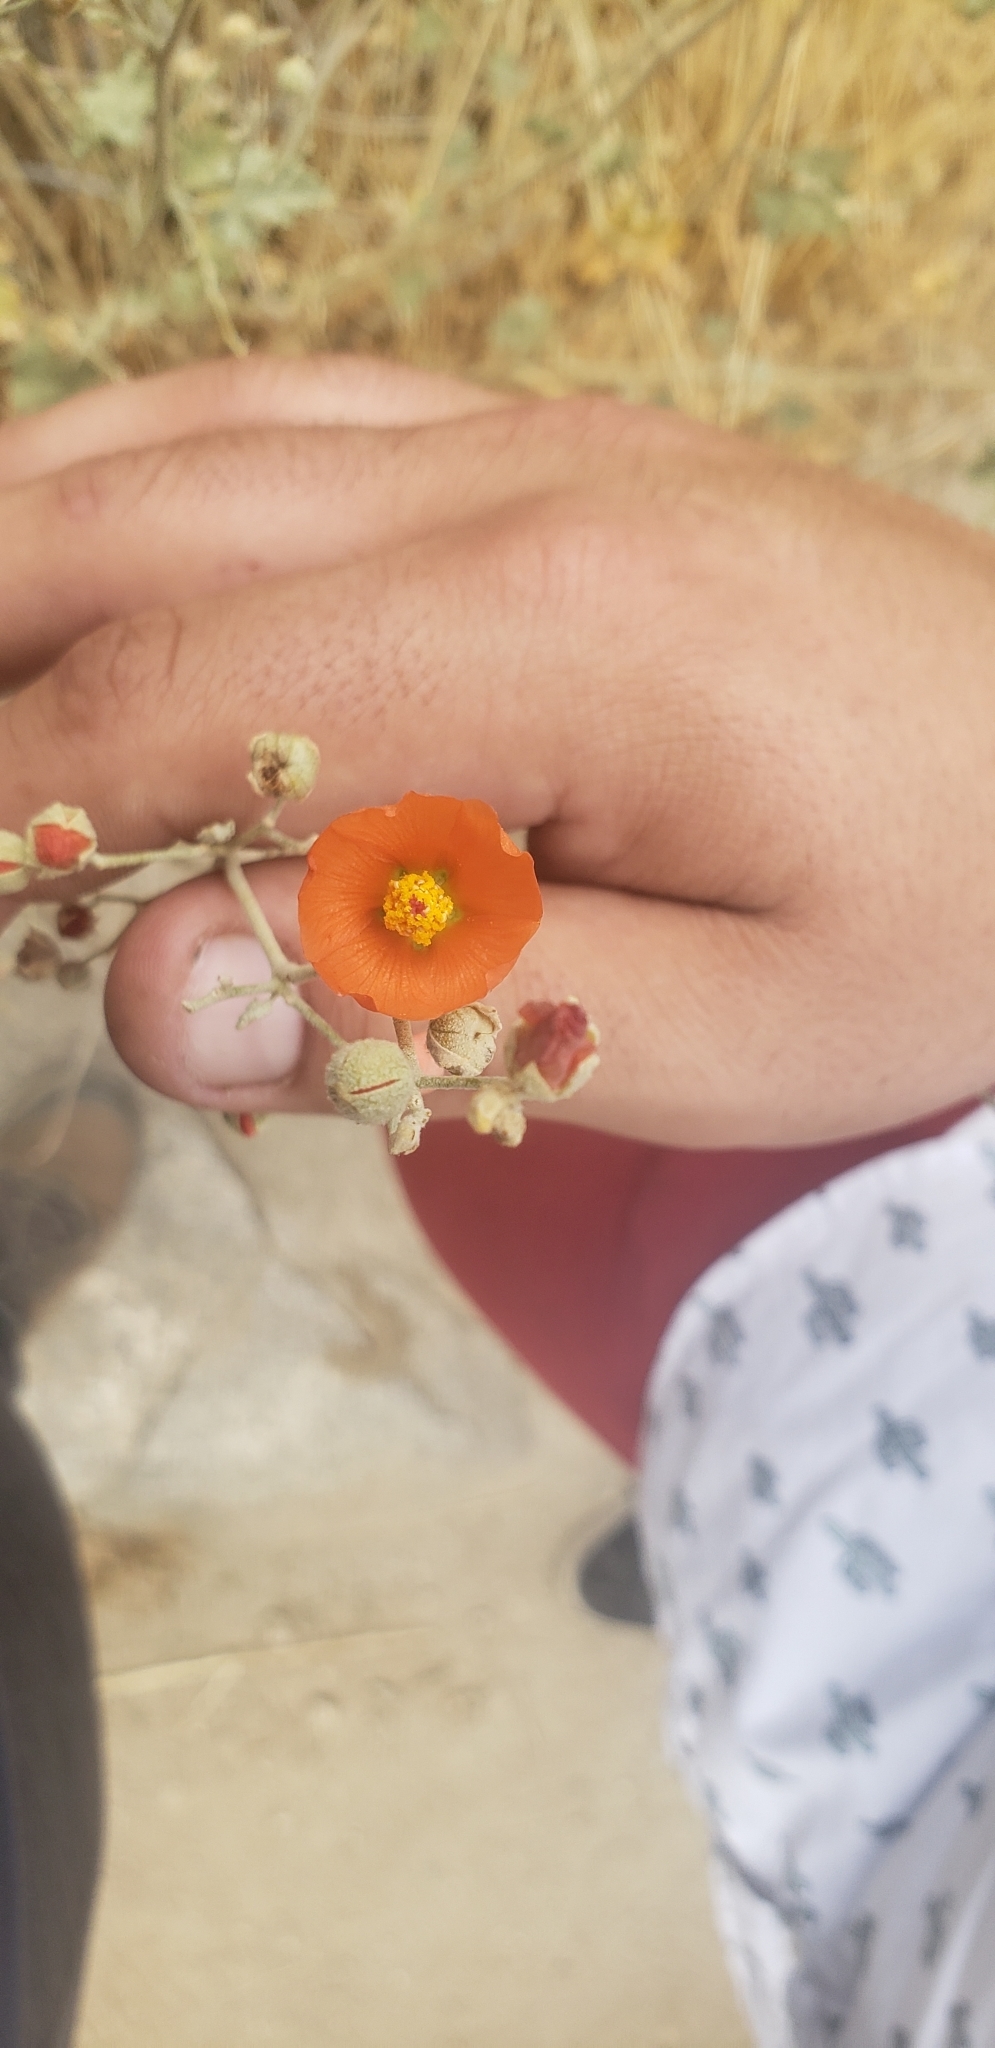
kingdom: Plantae
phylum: Tracheophyta
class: Magnoliopsida
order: Malvales
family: Malvaceae
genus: Sphaeralcea
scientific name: Sphaeralcea ambigua
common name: Apricot globe-mallow
